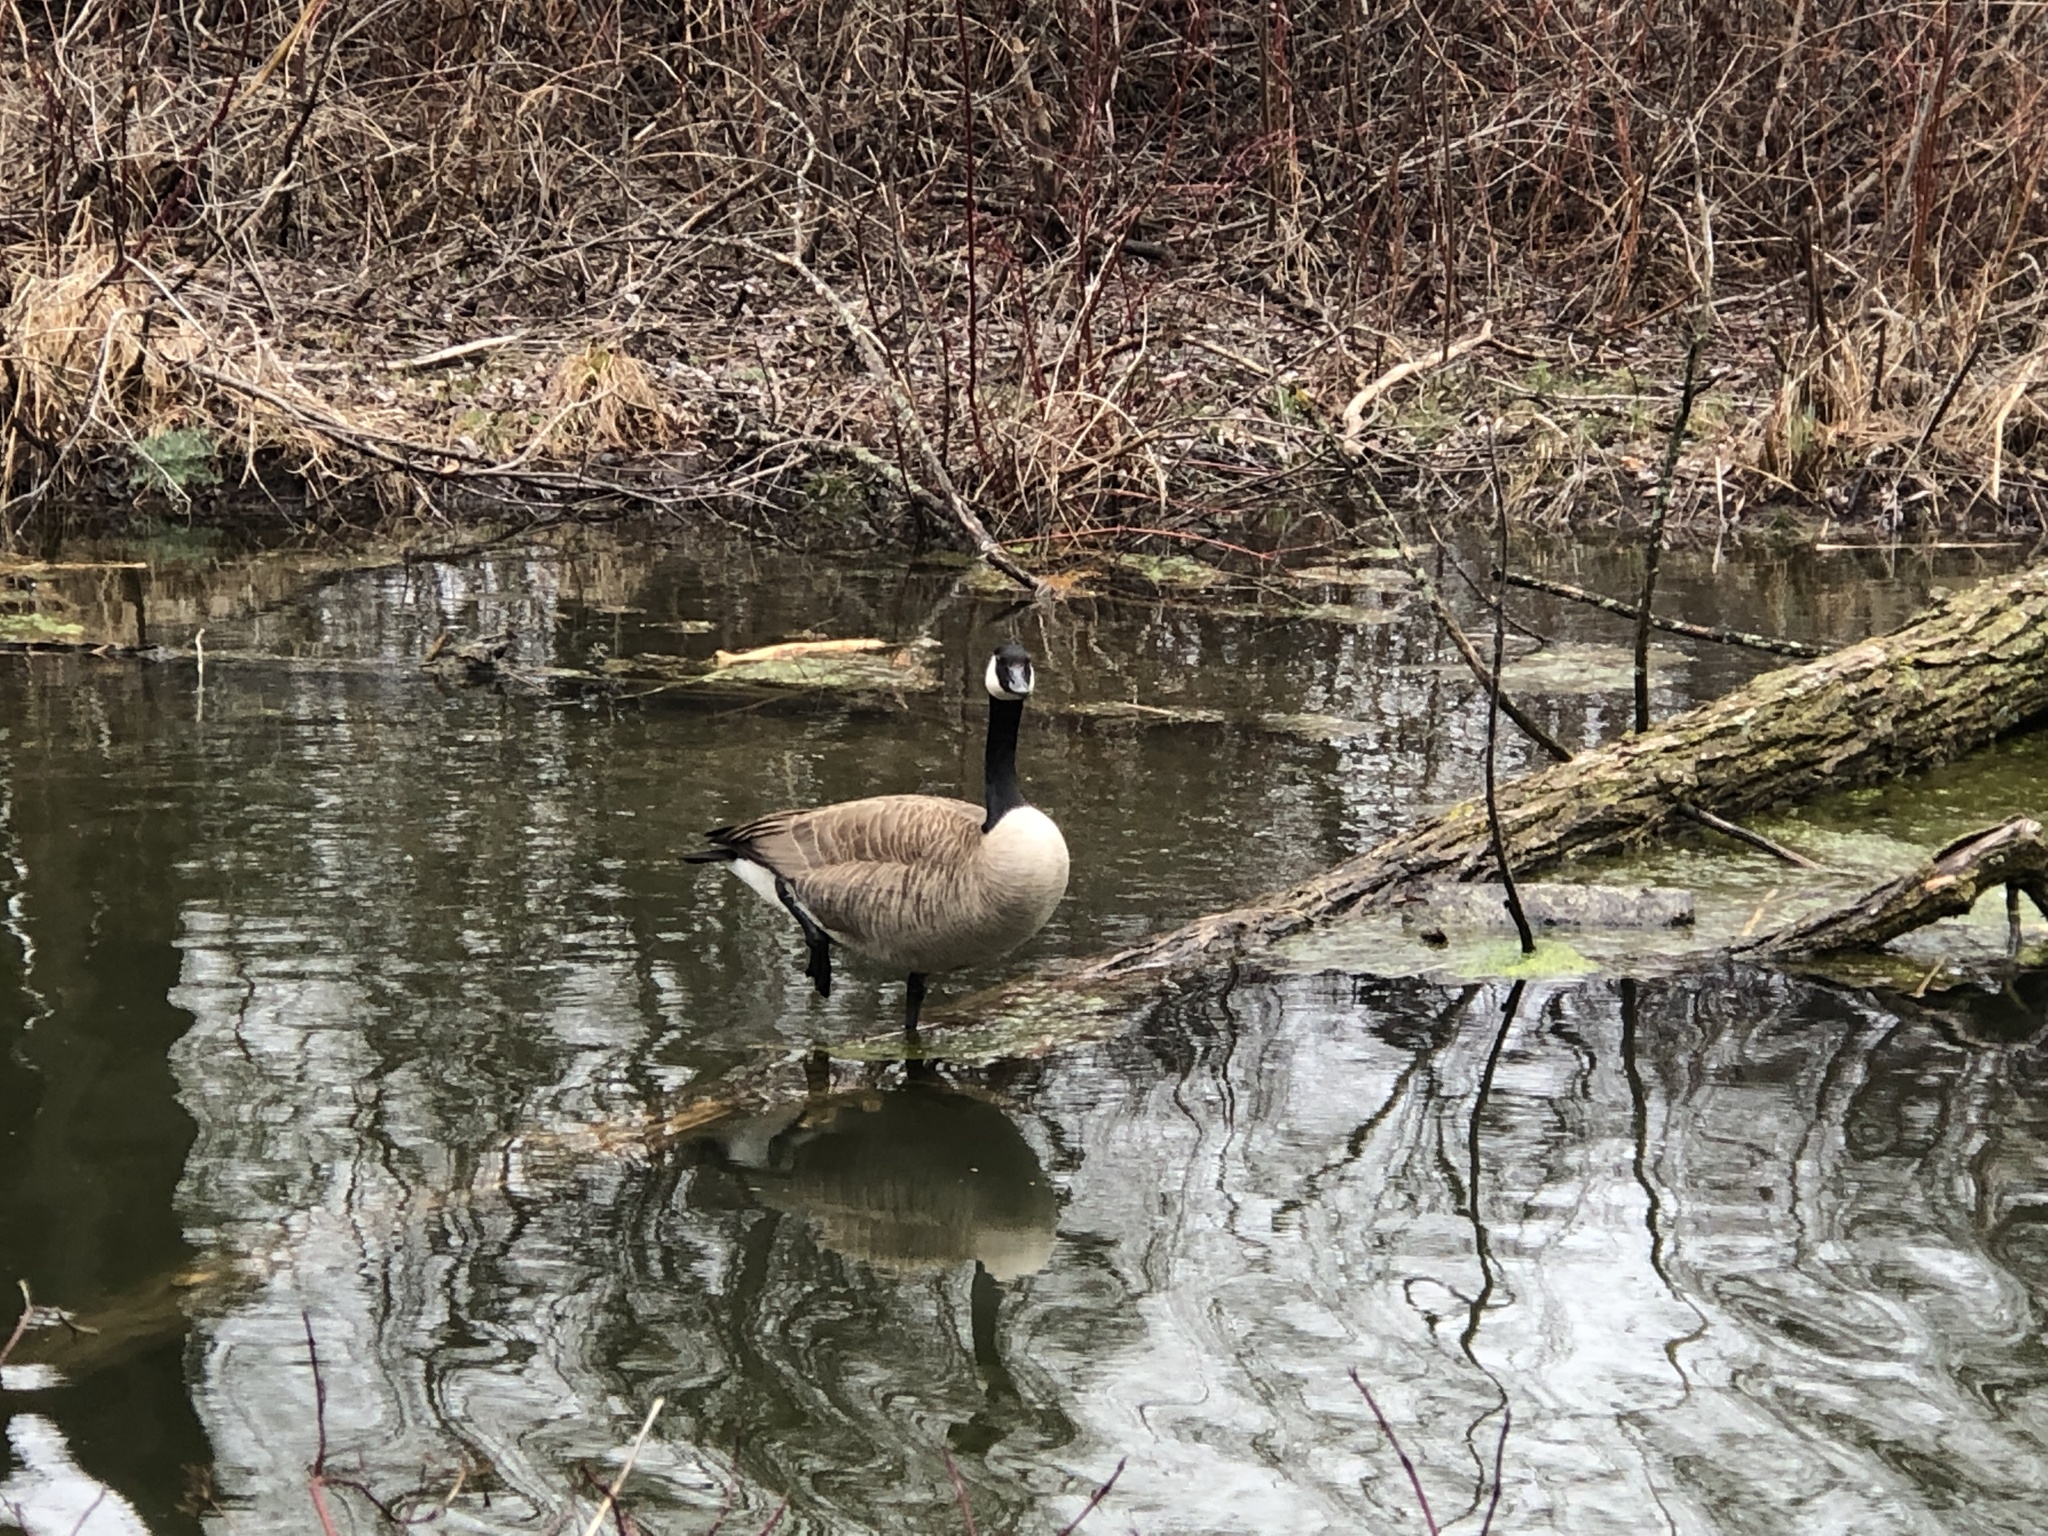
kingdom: Animalia
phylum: Chordata
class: Aves
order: Anseriformes
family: Anatidae
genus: Branta
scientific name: Branta canadensis
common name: Canada goose
